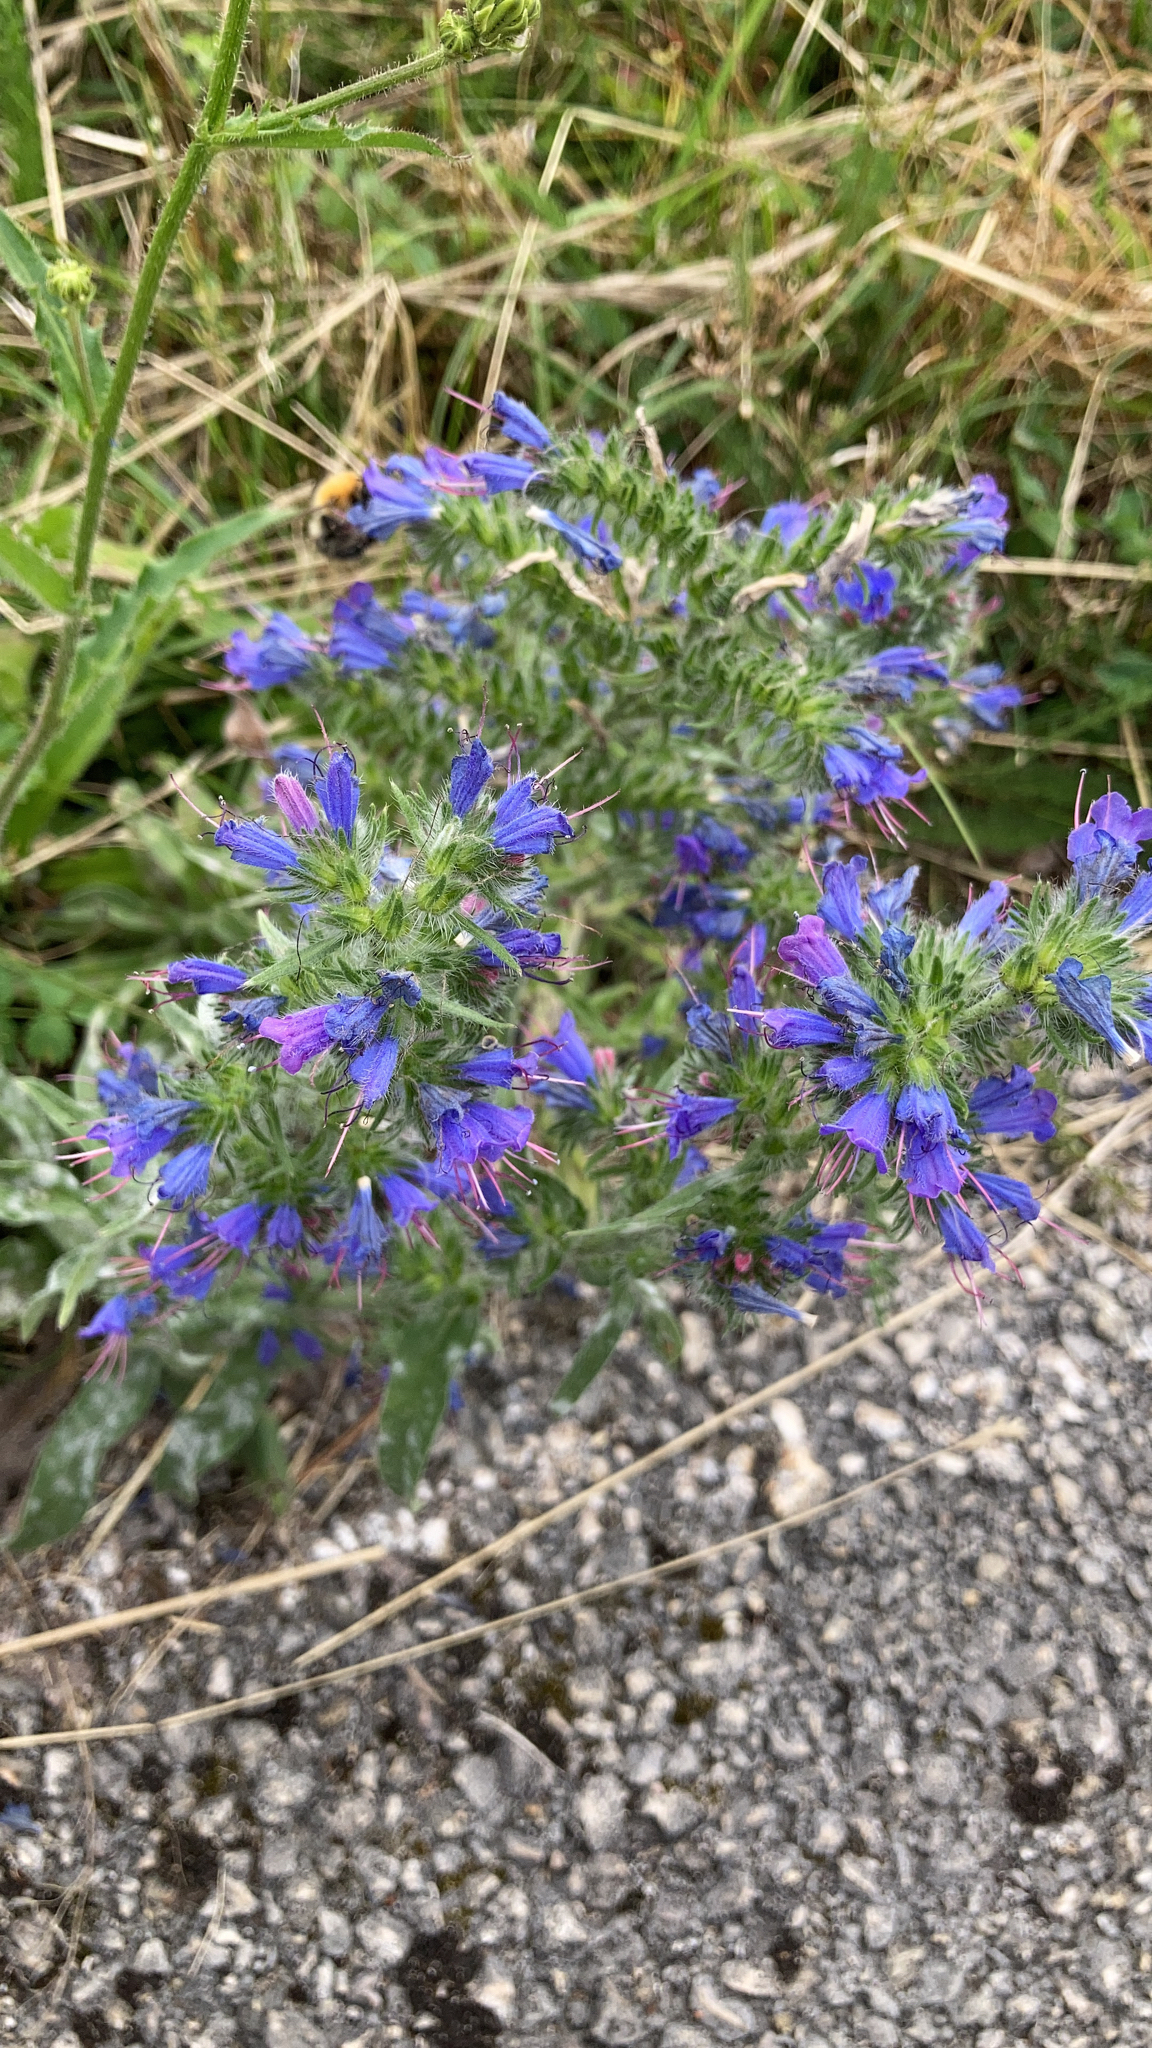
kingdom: Plantae
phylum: Tracheophyta
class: Magnoliopsida
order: Boraginales
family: Boraginaceae
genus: Echium
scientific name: Echium vulgare
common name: Common viper's bugloss
